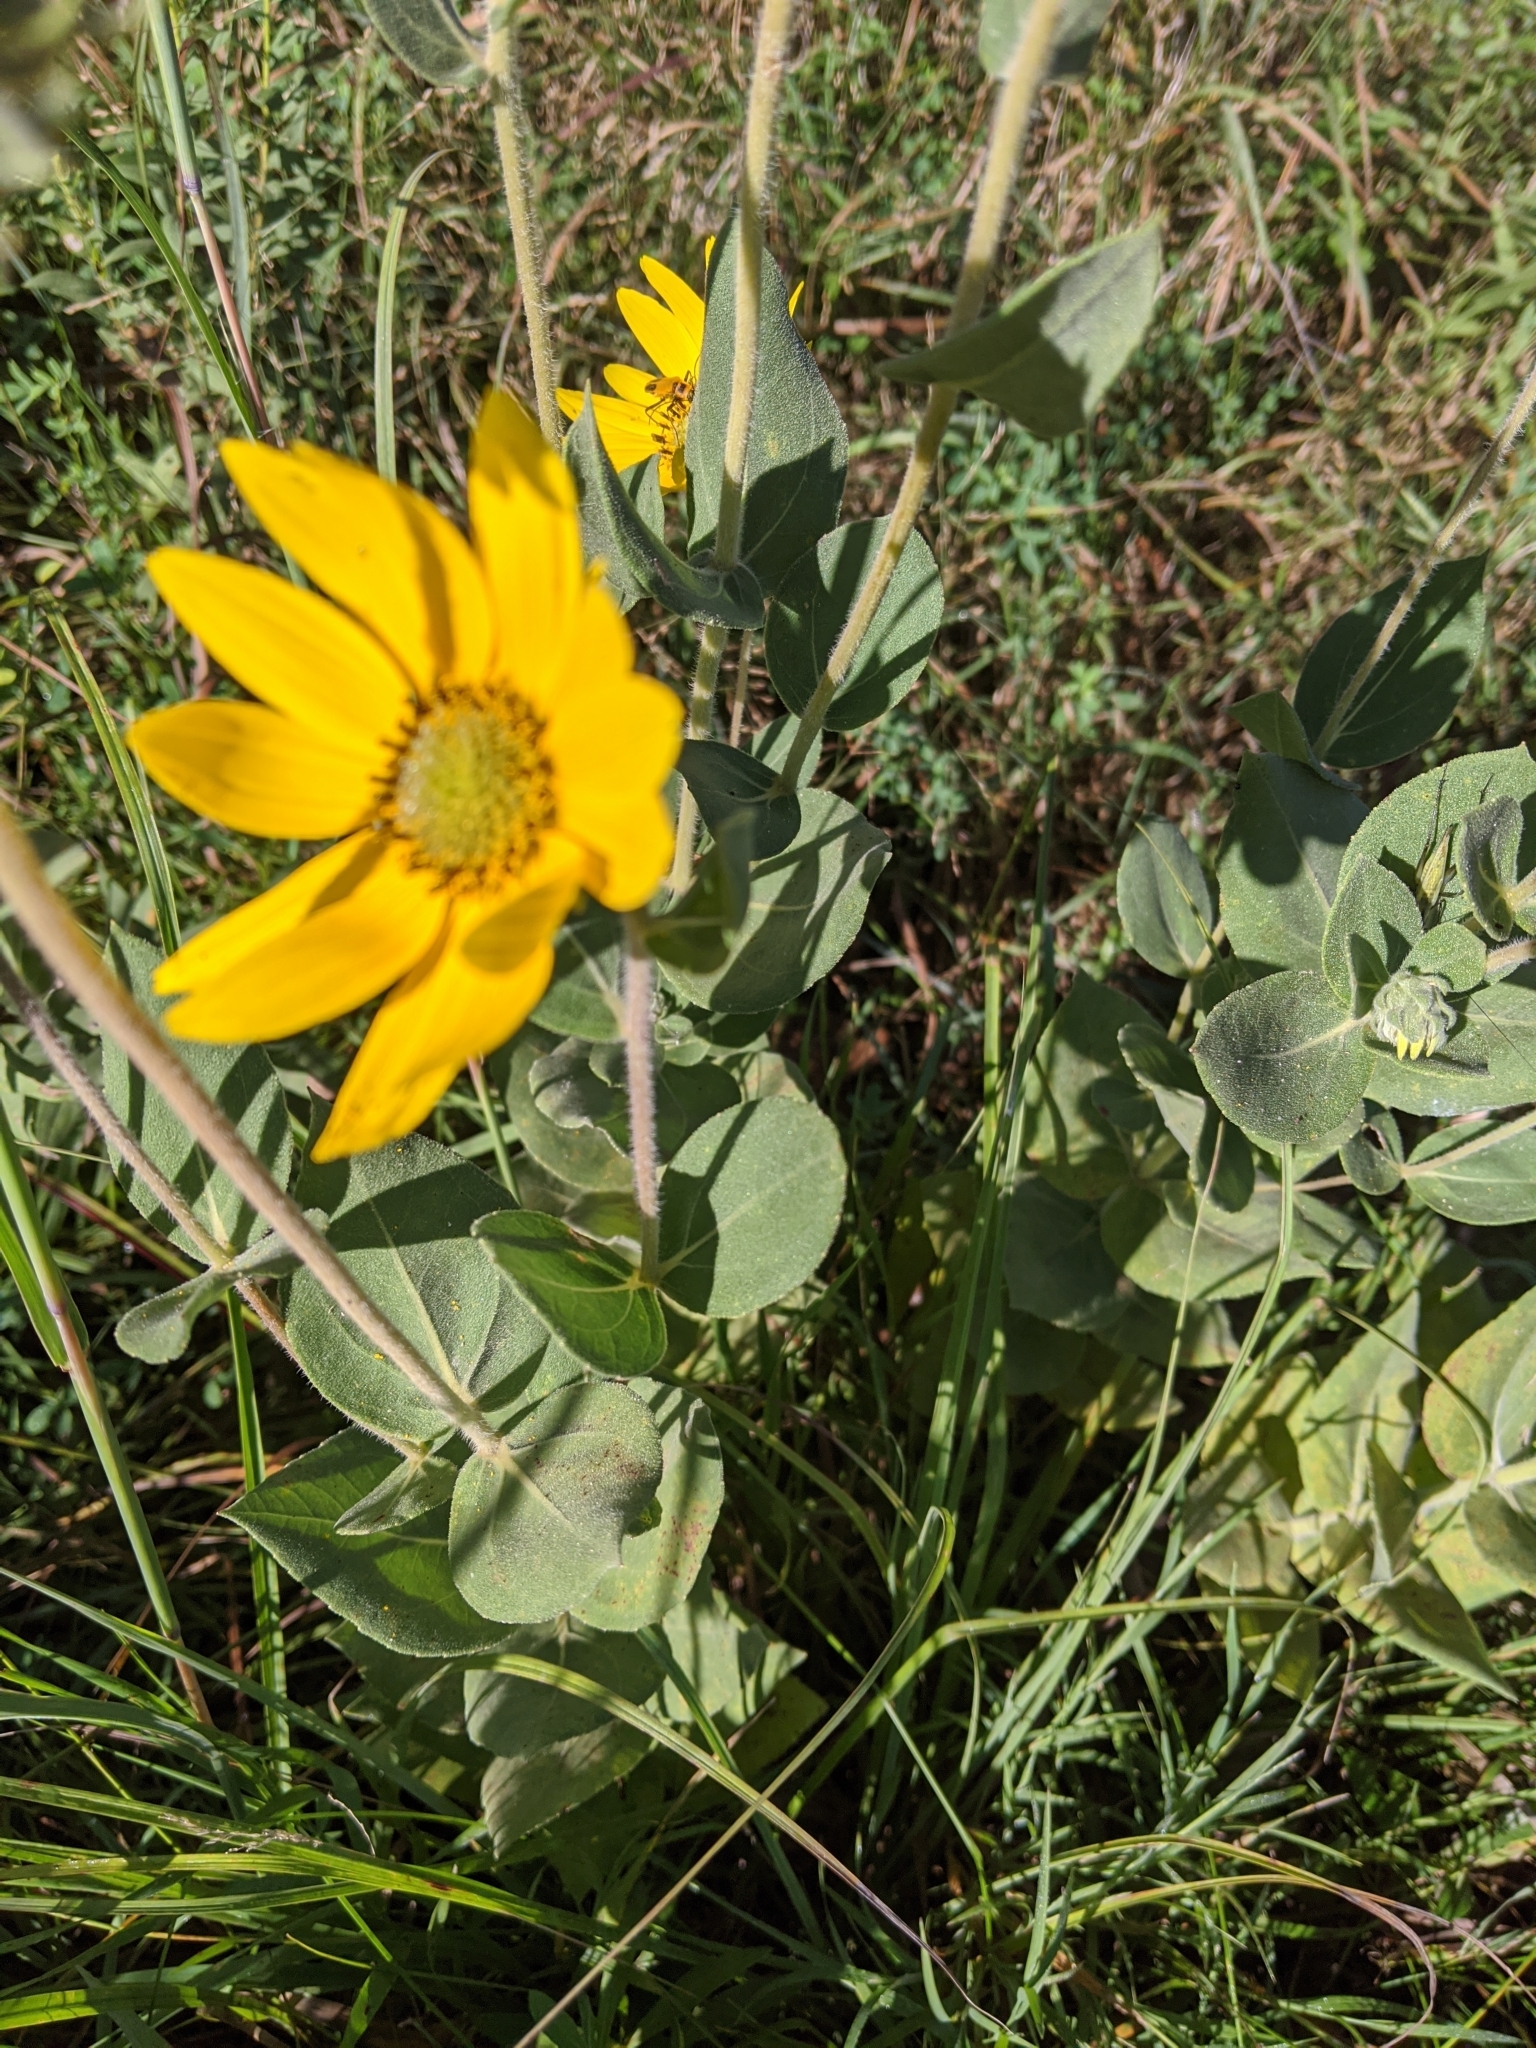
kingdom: Plantae
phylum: Tracheophyta
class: Magnoliopsida
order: Asterales
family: Asteraceae
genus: Helianthus
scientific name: Helianthus mollis
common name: Ashy sunflower
